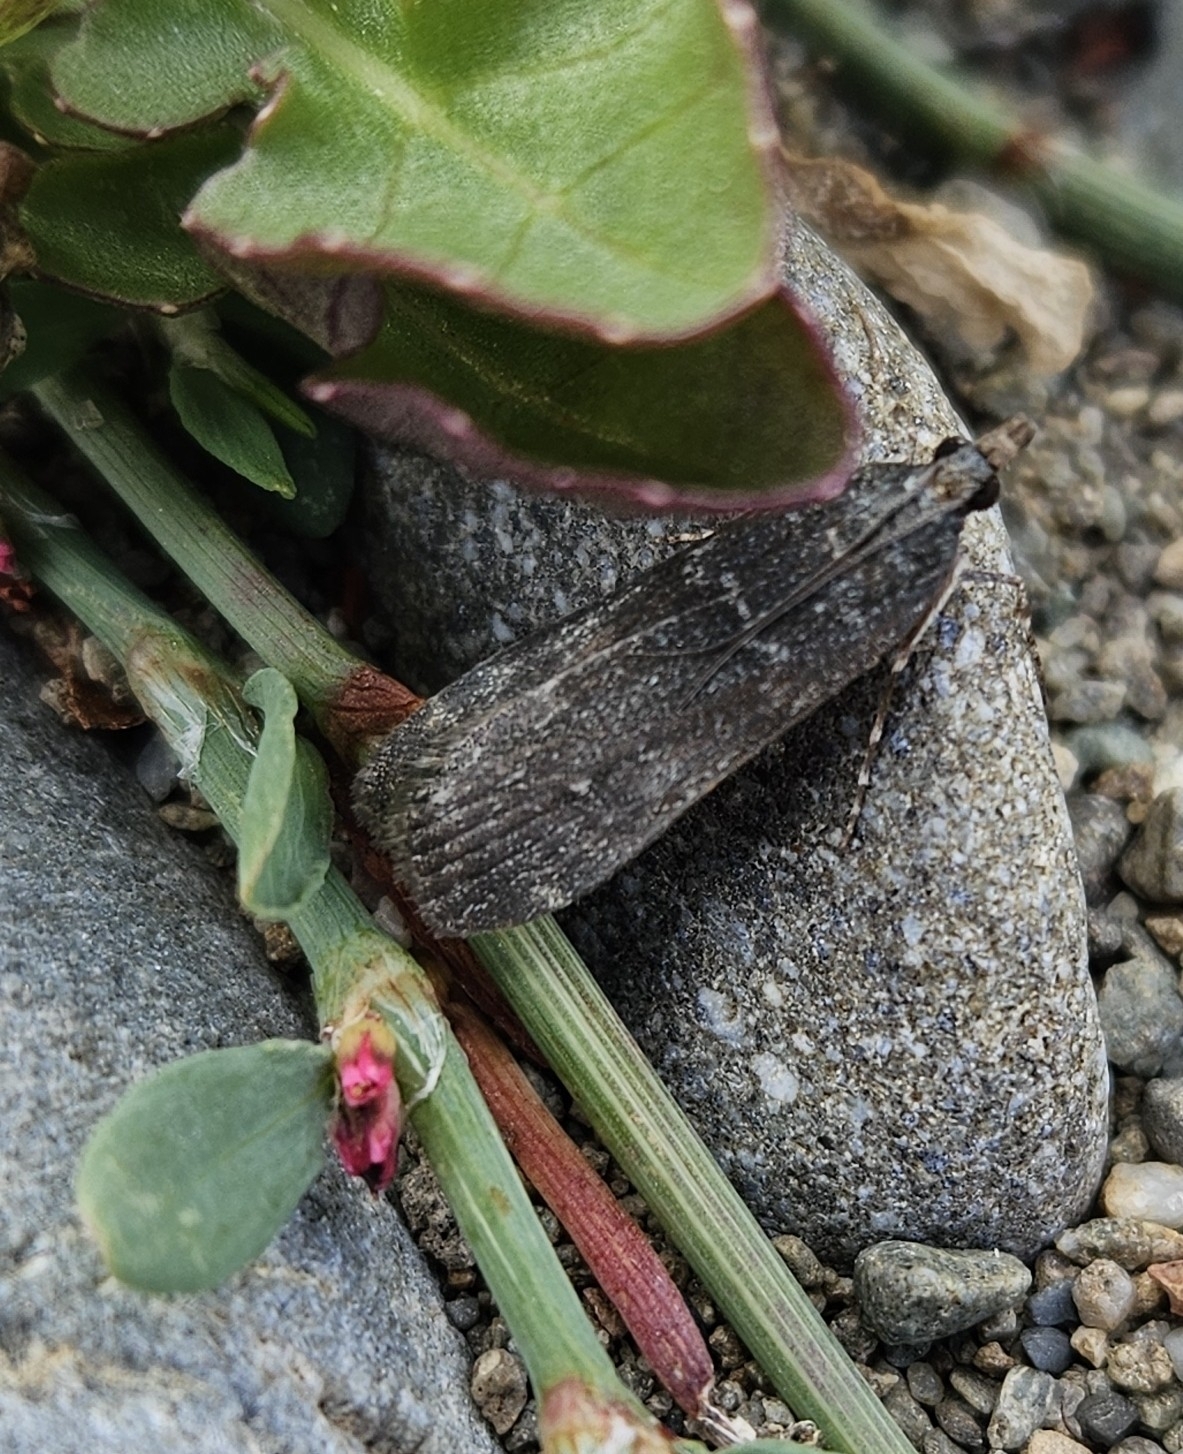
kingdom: Animalia
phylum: Arthropoda
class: Insecta
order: Lepidoptera
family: Crambidae
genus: Eudonia
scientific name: Eudonia cataxesta
